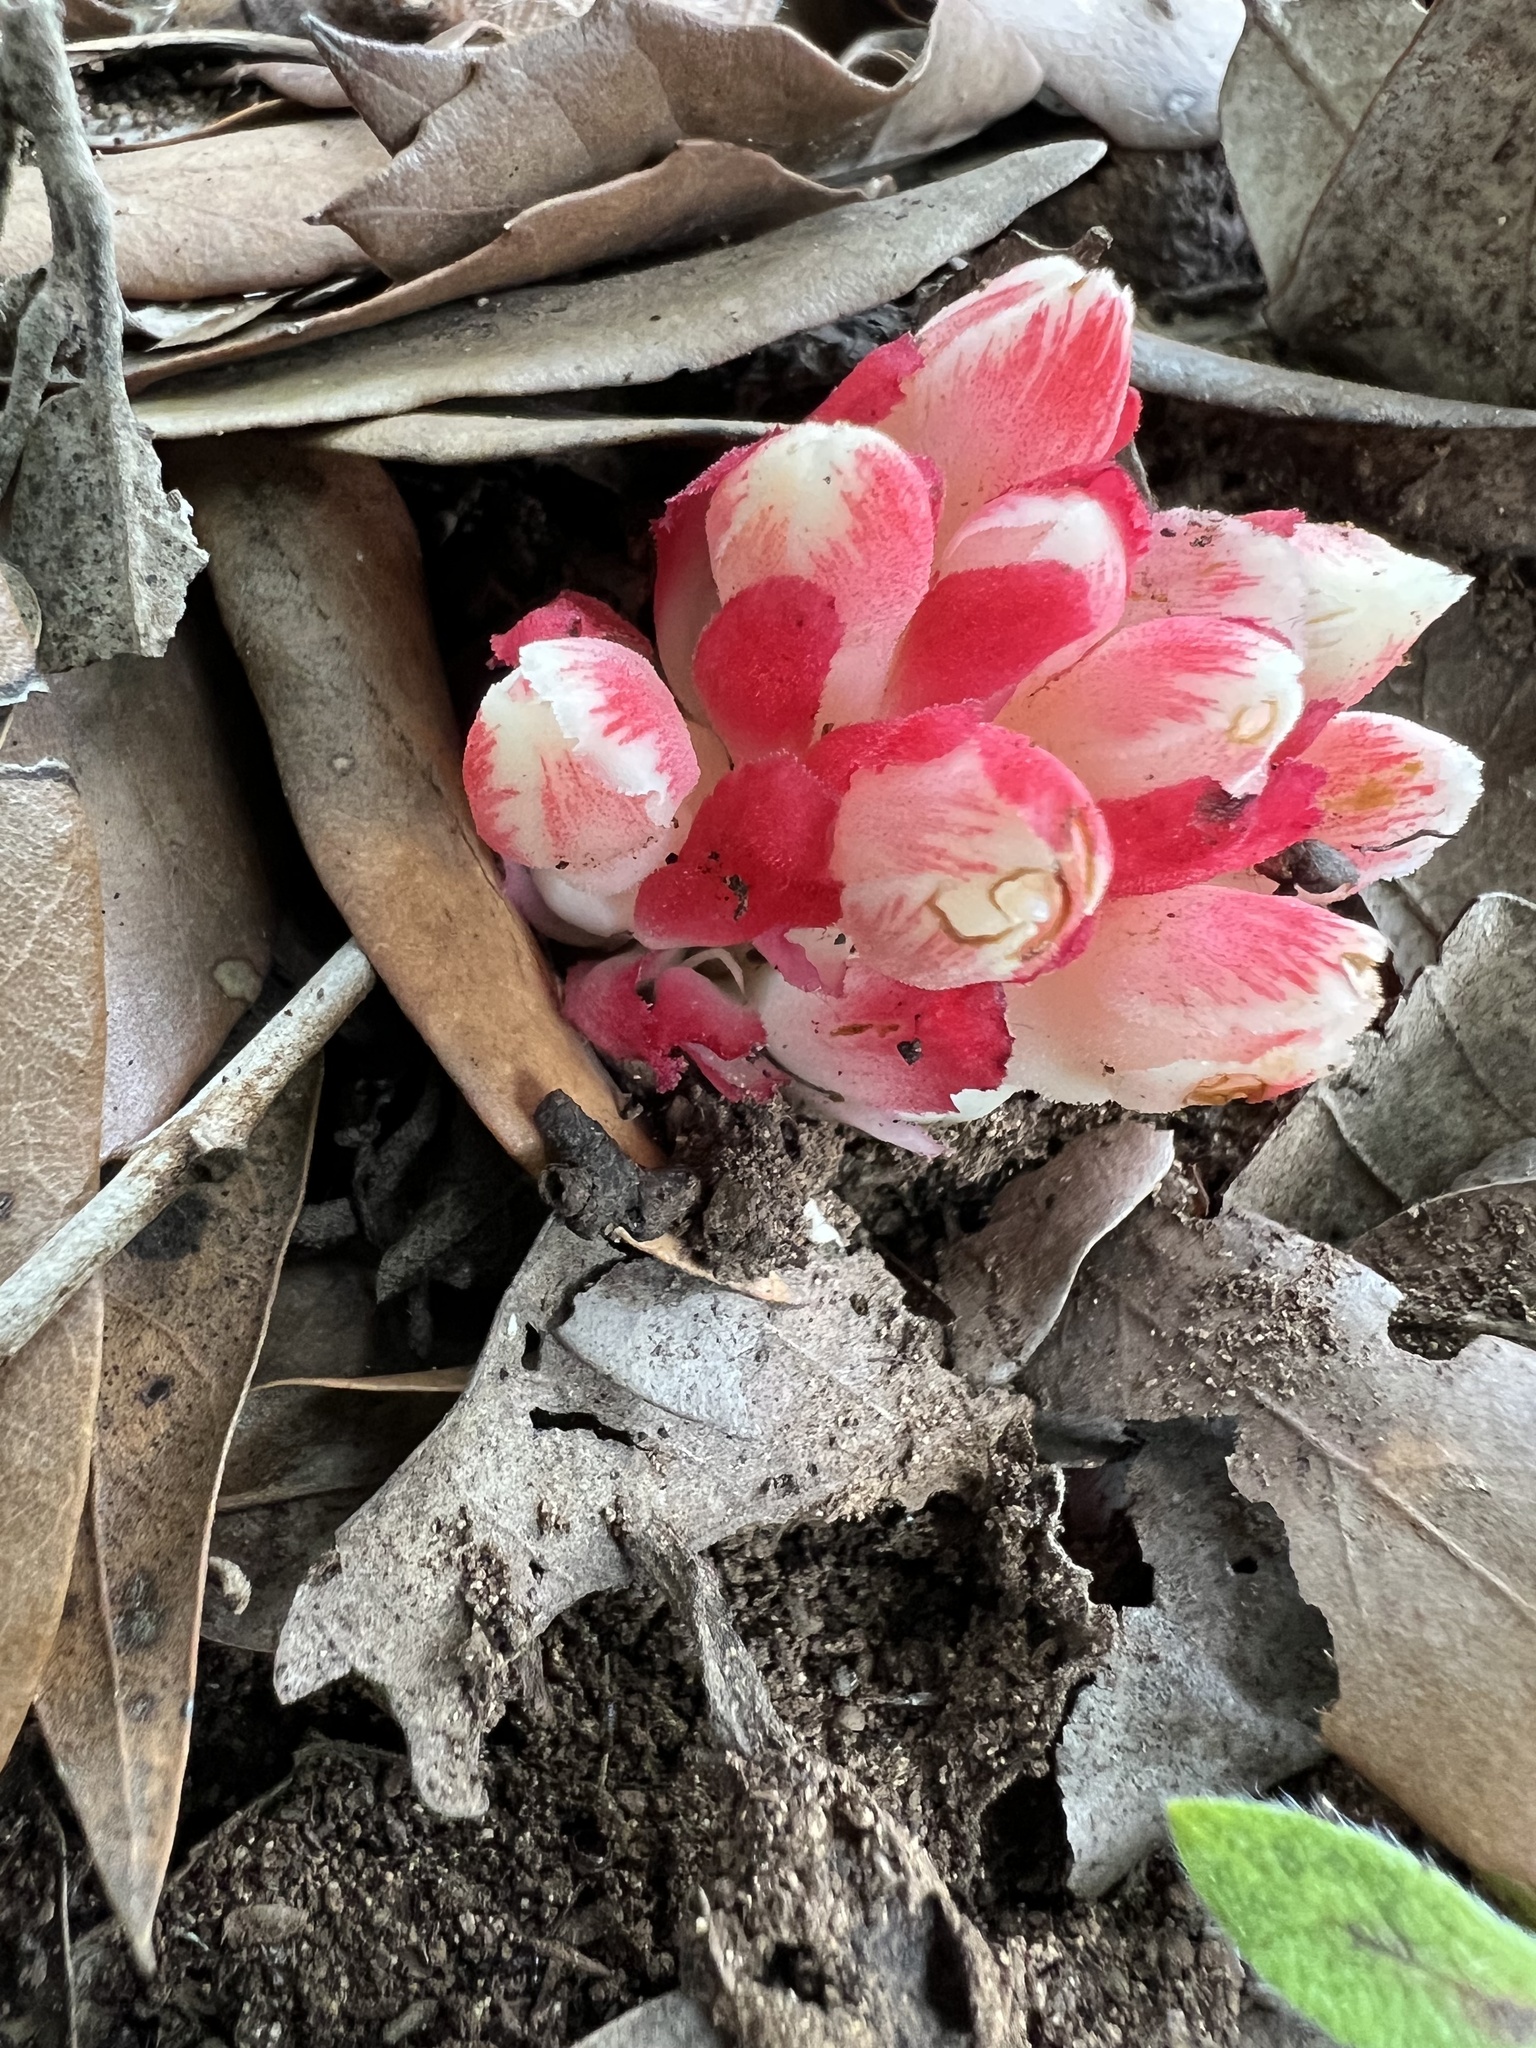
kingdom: Plantae
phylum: Tracheophyta
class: Magnoliopsida
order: Malvales
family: Cytinaceae
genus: Cytinus
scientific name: Cytinus ruber
